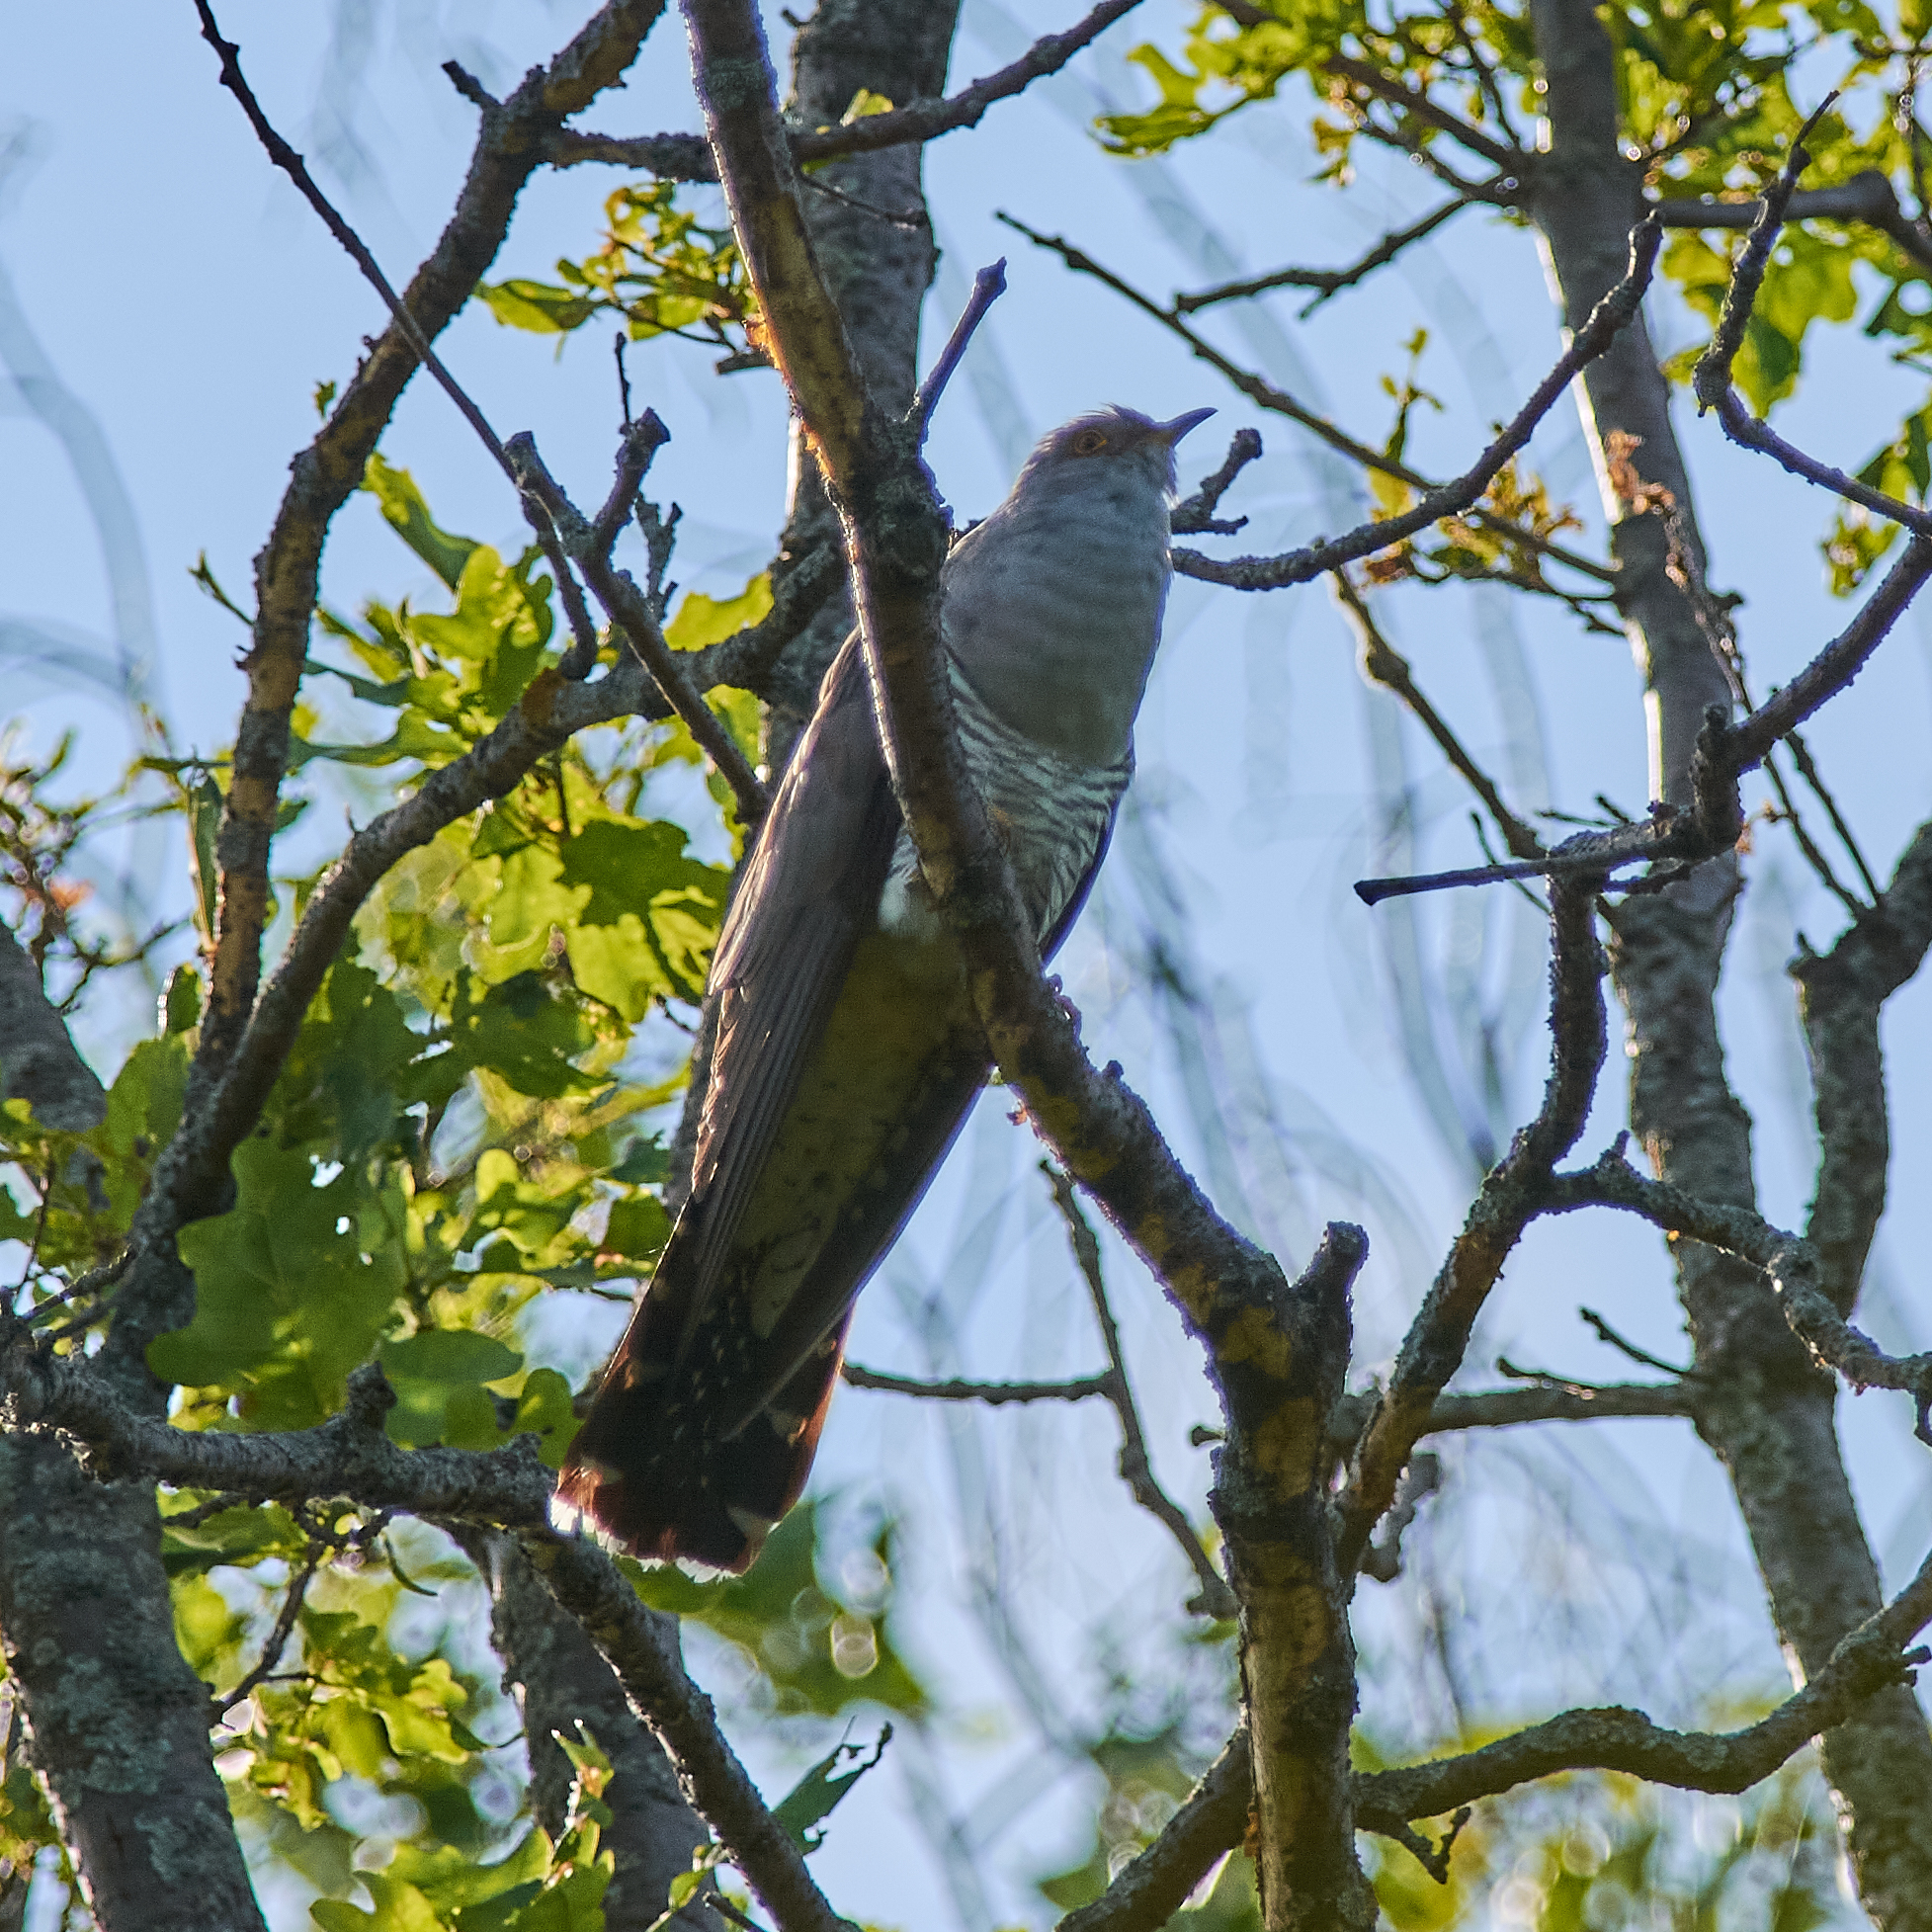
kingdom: Animalia
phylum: Chordata
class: Aves
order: Cuculiformes
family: Cuculidae
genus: Cuculus
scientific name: Cuculus canorus
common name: Common cuckoo
